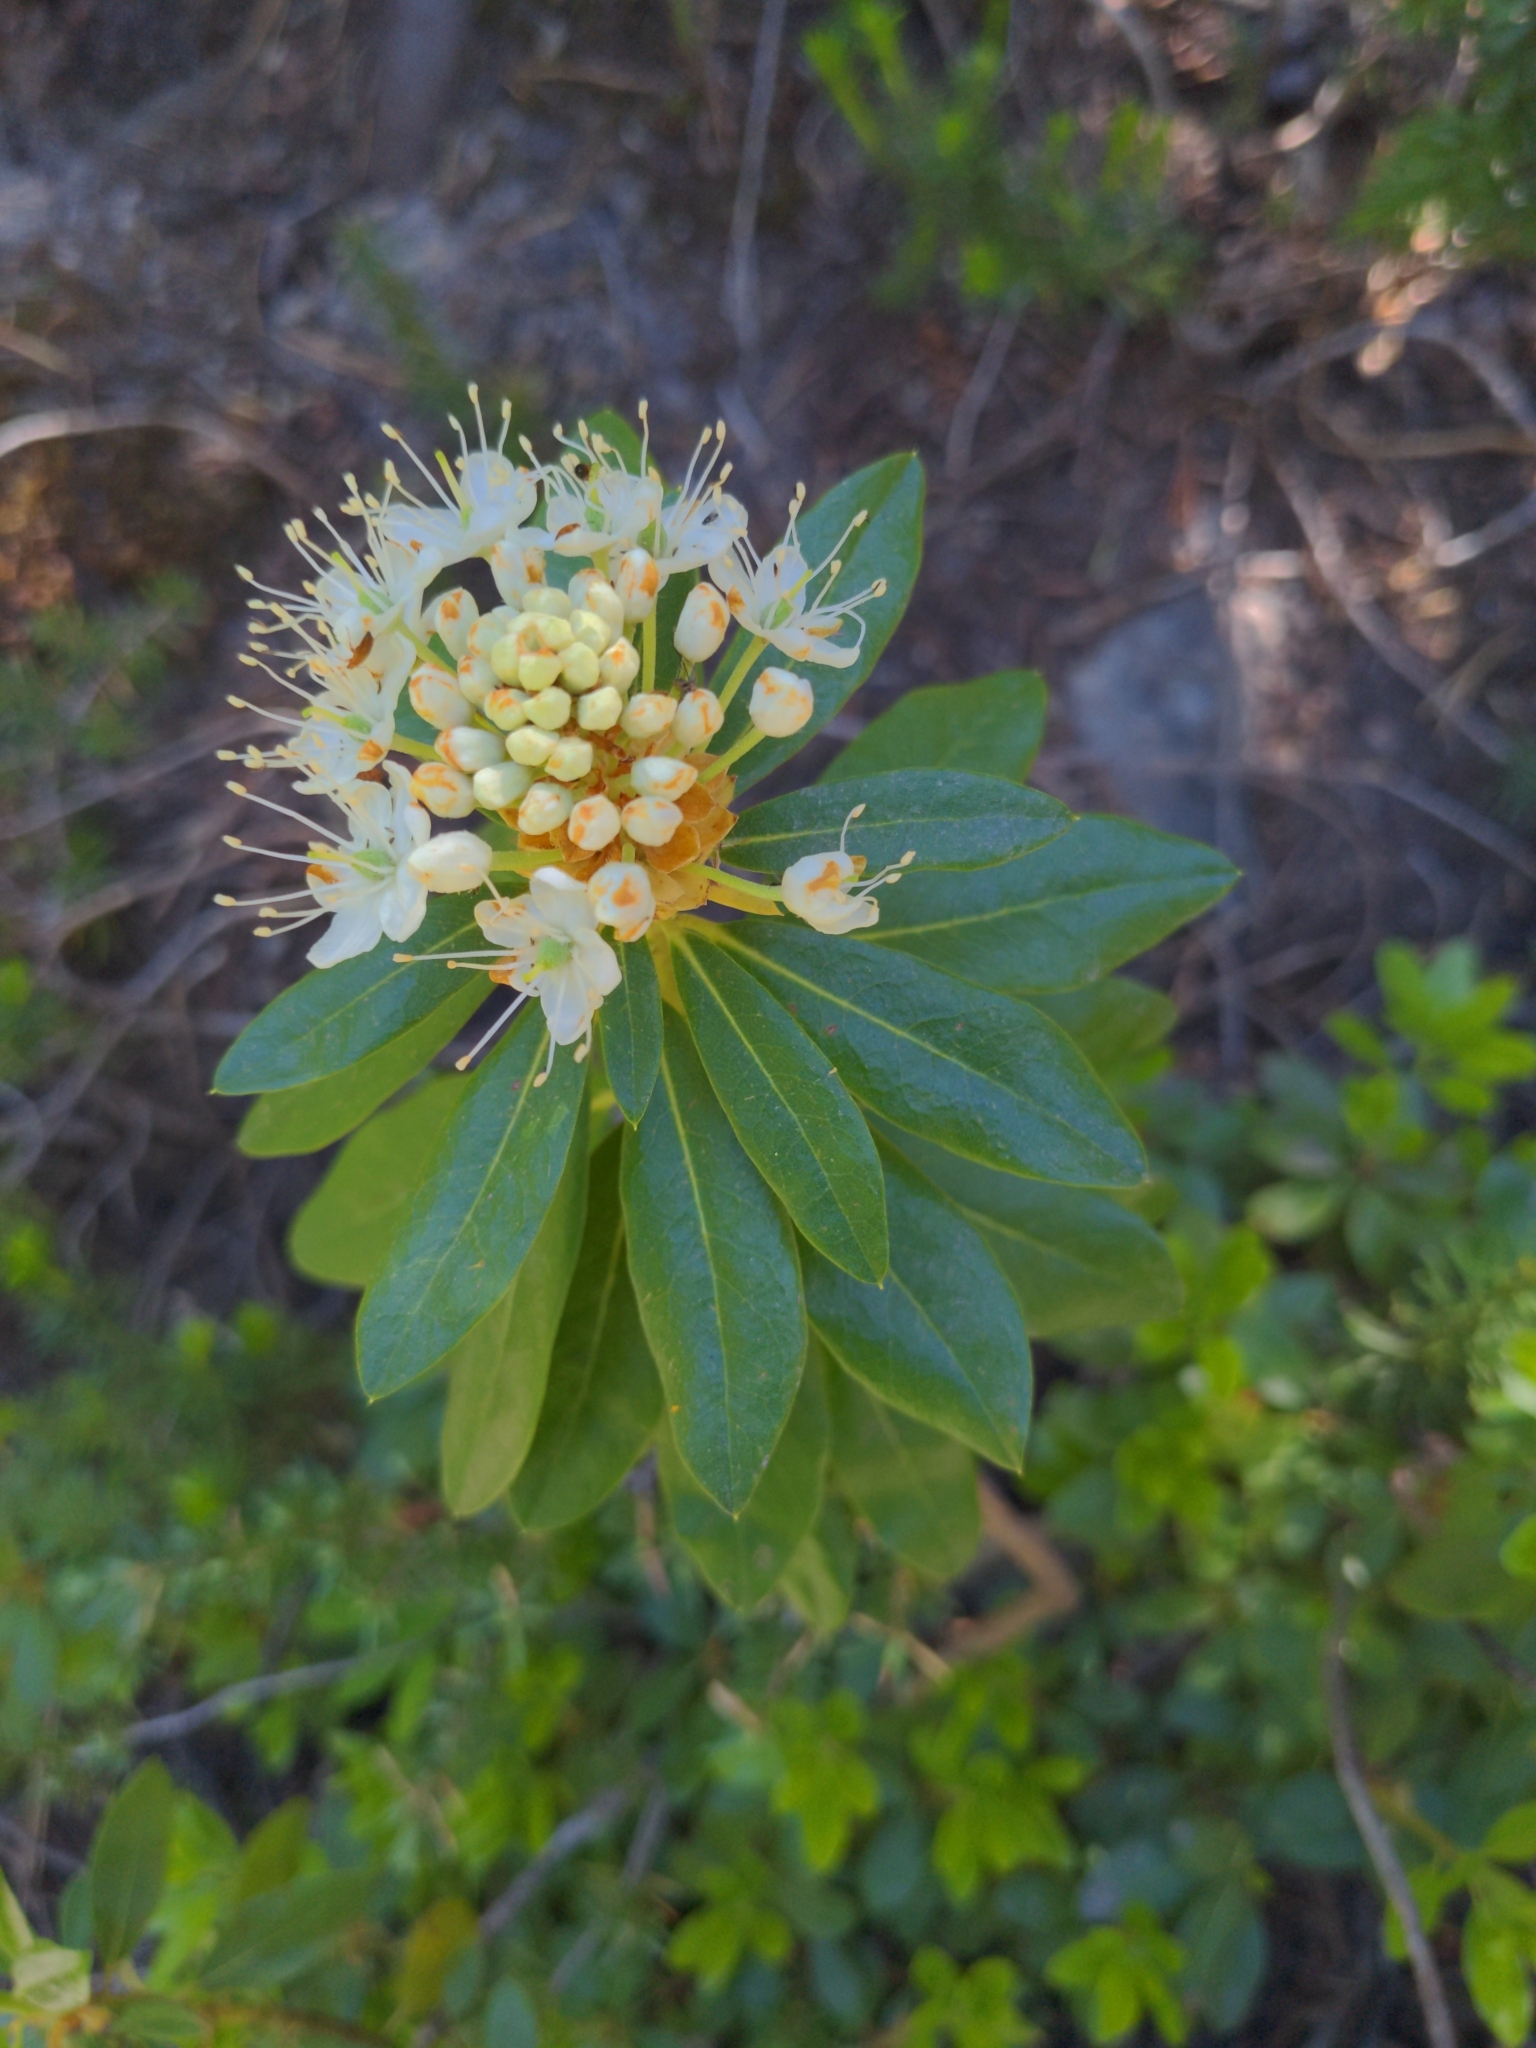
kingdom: Plantae
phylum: Tracheophyta
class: Magnoliopsida
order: Ericales
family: Ericaceae
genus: Rhododendron
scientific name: Rhododendron columbianum
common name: Western labrador tea
